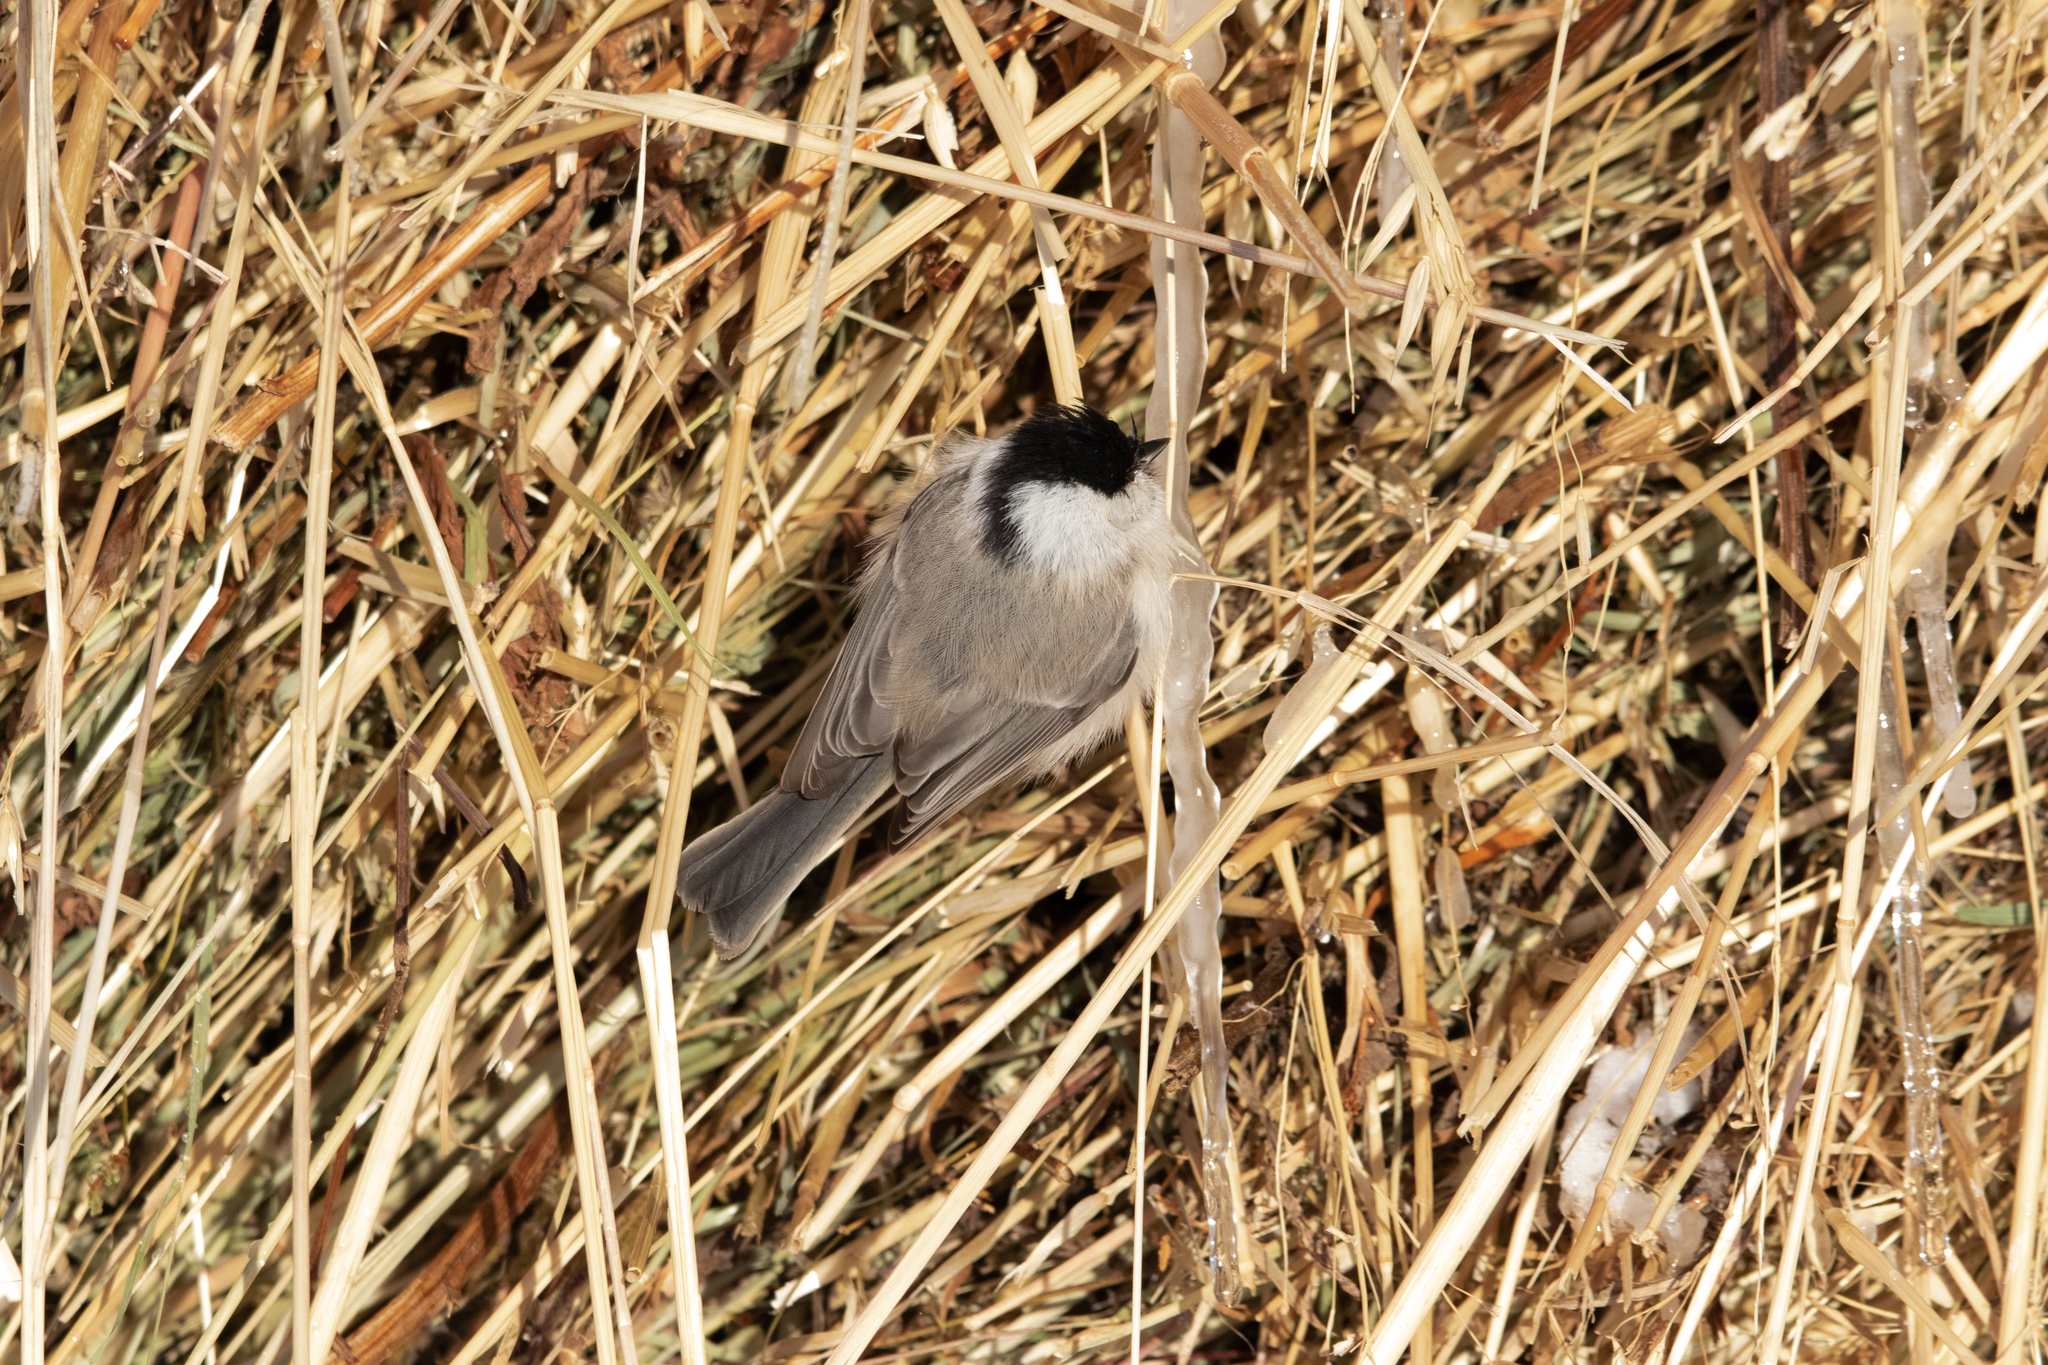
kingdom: Animalia
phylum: Chordata
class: Aves
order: Passeriformes
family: Paridae
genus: Poecile
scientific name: Poecile palustris
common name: Marsh tit
